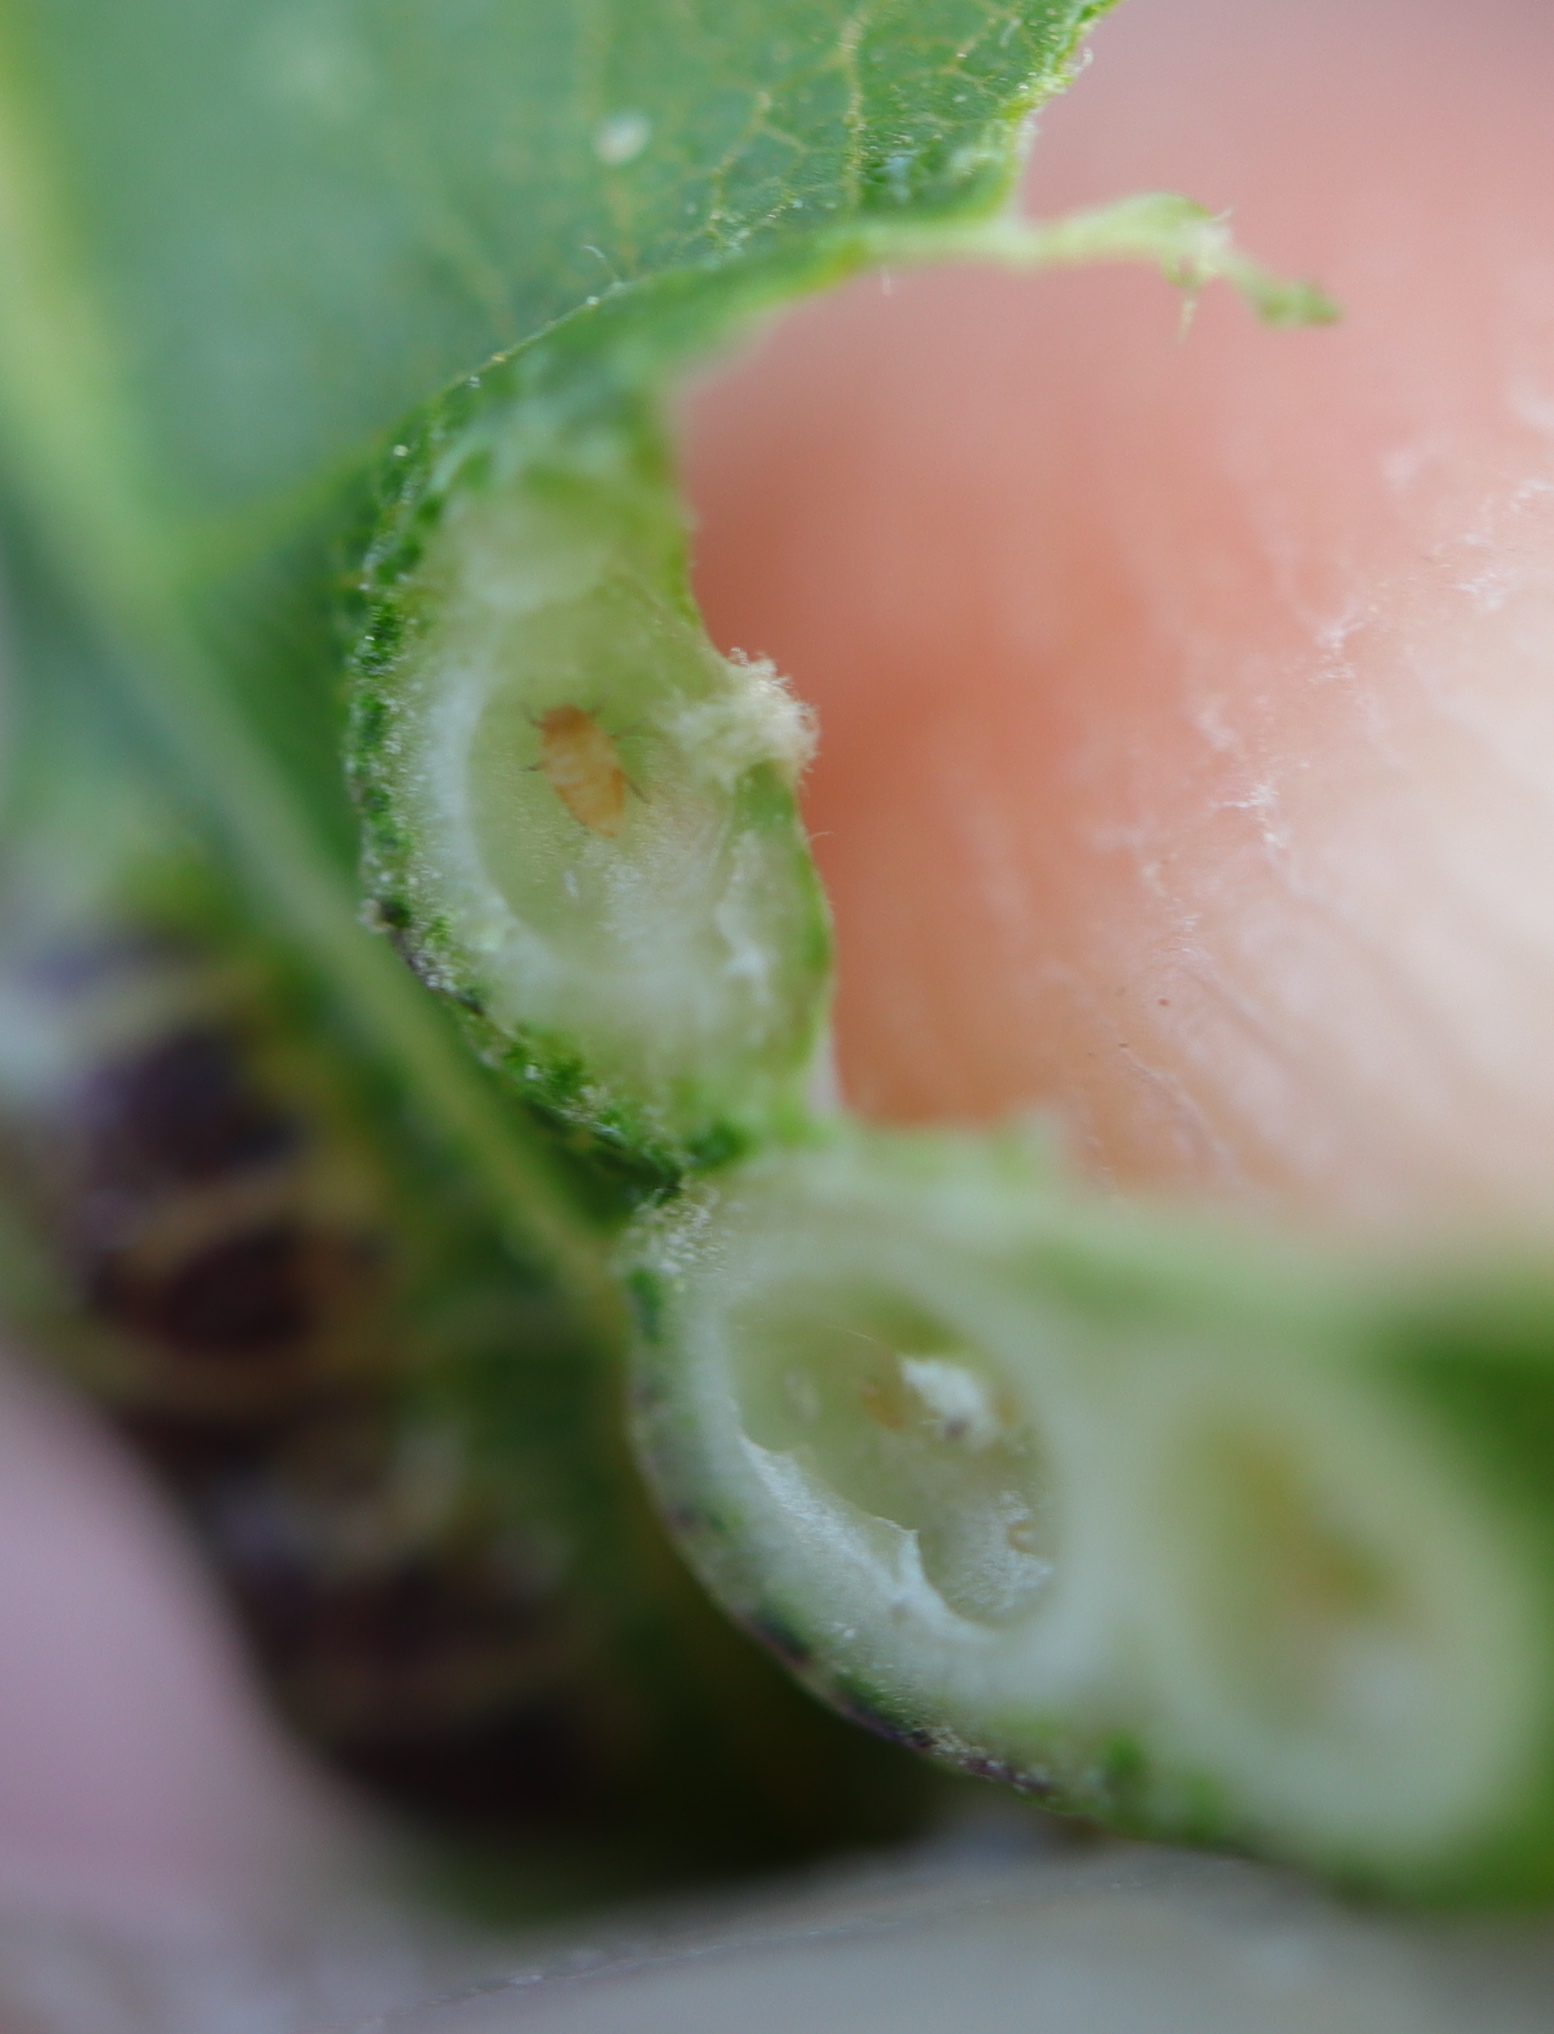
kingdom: Animalia
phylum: Arthropoda
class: Insecta
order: Hemiptera
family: Phylloxeridae
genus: Phylloxera
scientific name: Phylloxera russellae
